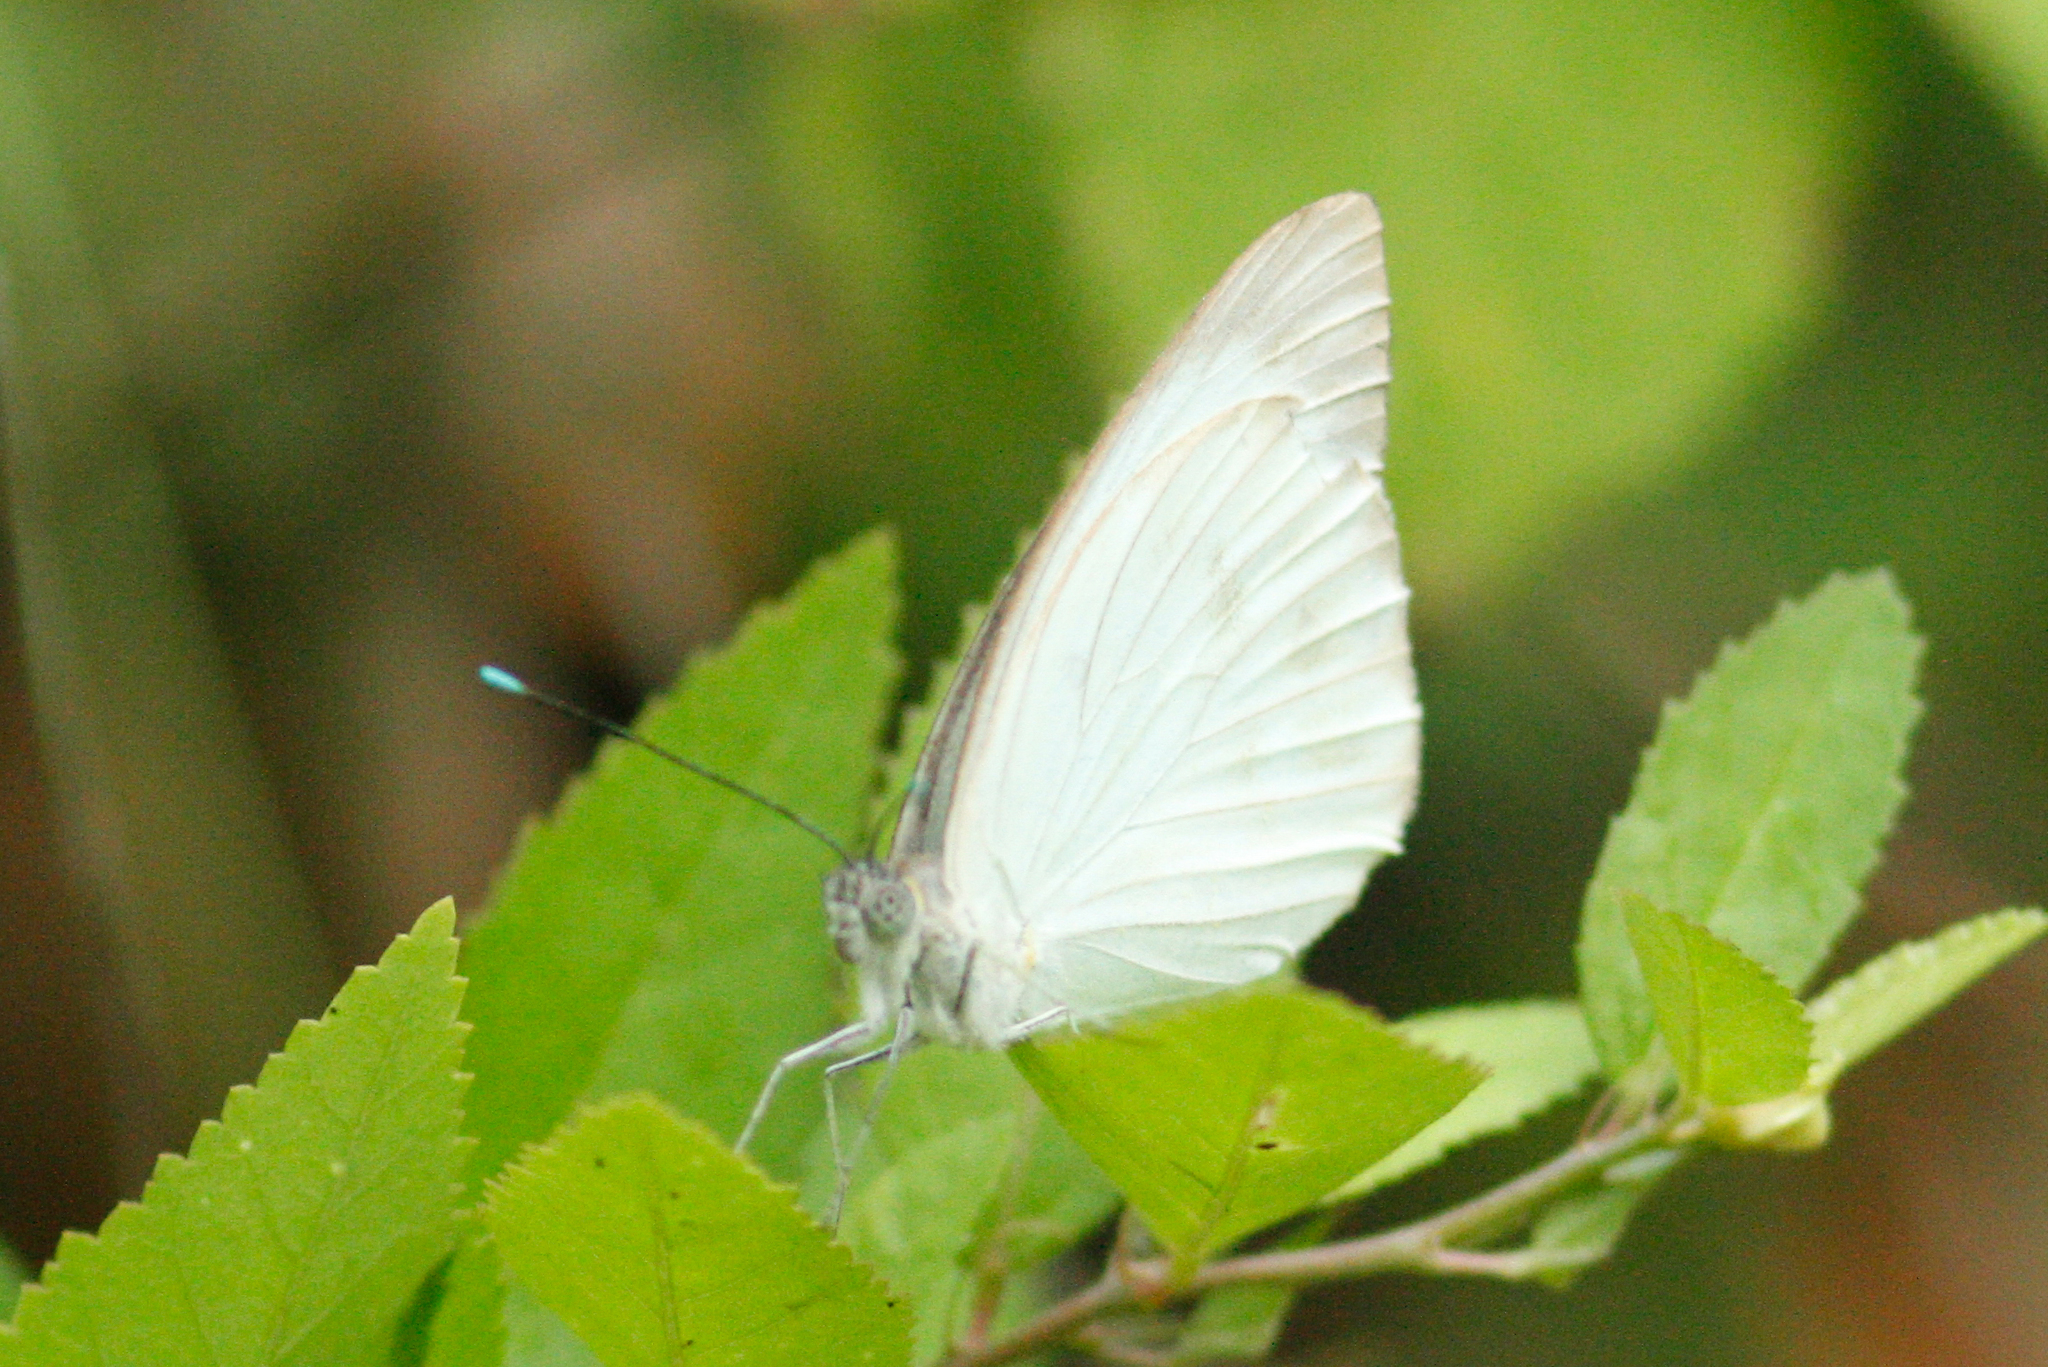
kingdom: Animalia
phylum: Arthropoda
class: Insecta
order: Lepidoptera
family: Pieridae
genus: Ascia
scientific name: Ascia monuste
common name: Great southern white
